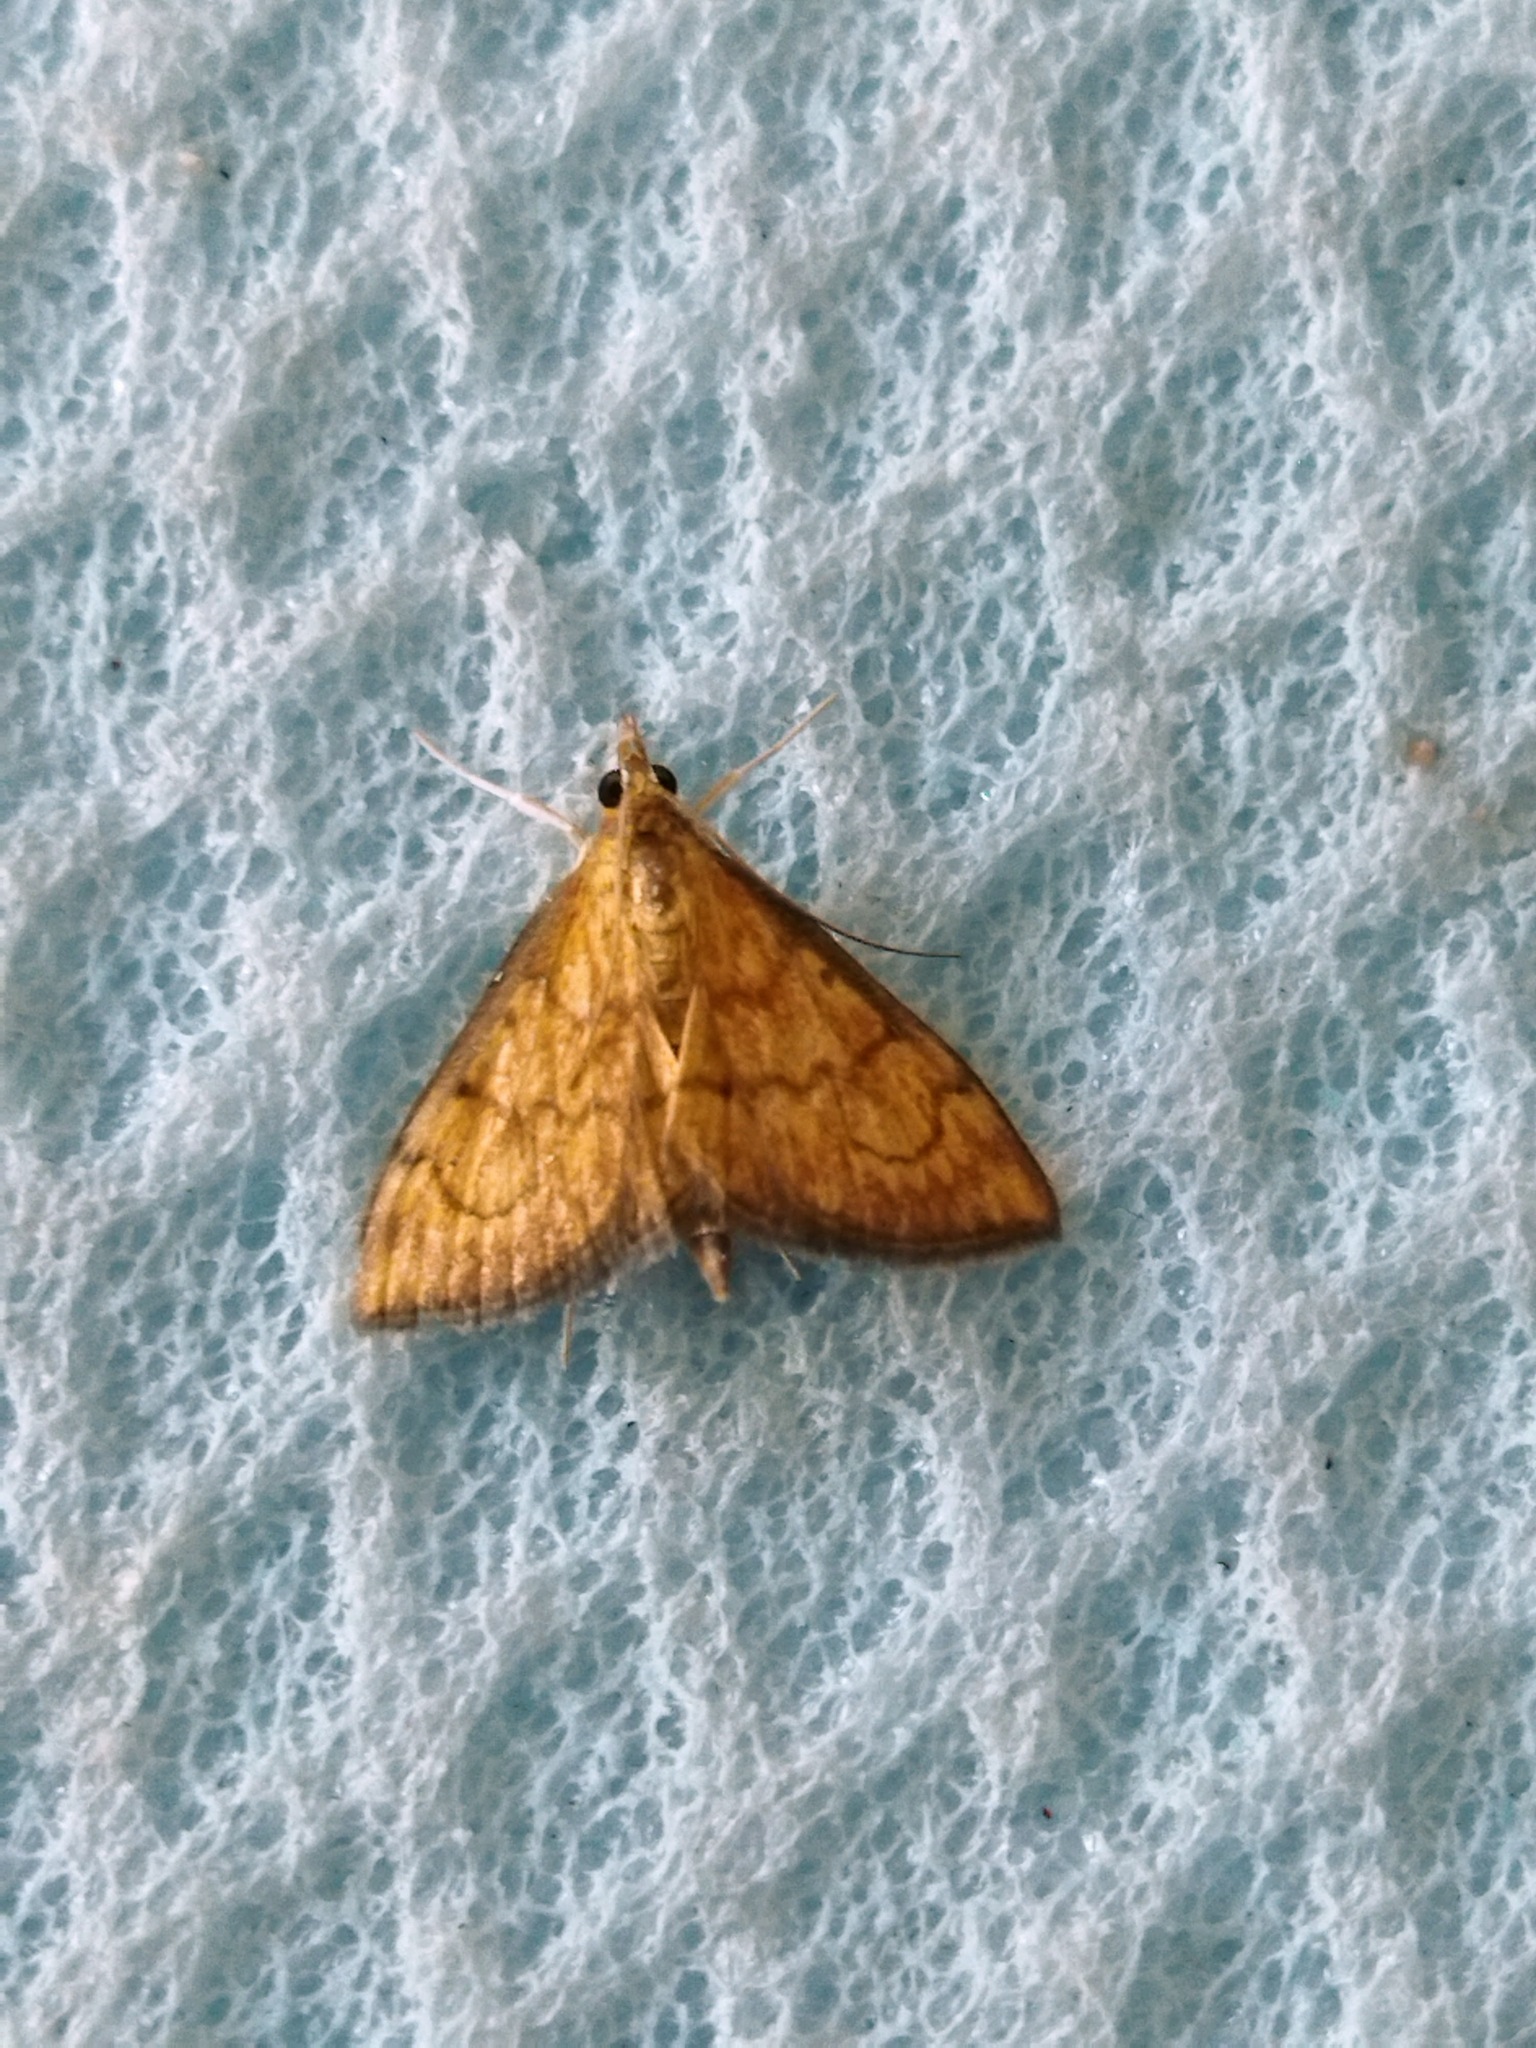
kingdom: Animalia
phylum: Arthropoda
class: Insecta
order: Lepidoptera
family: Crambidae
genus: Ecpyrrhorrhoe
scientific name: Ecpyrrhorrhoe rubiginalis
